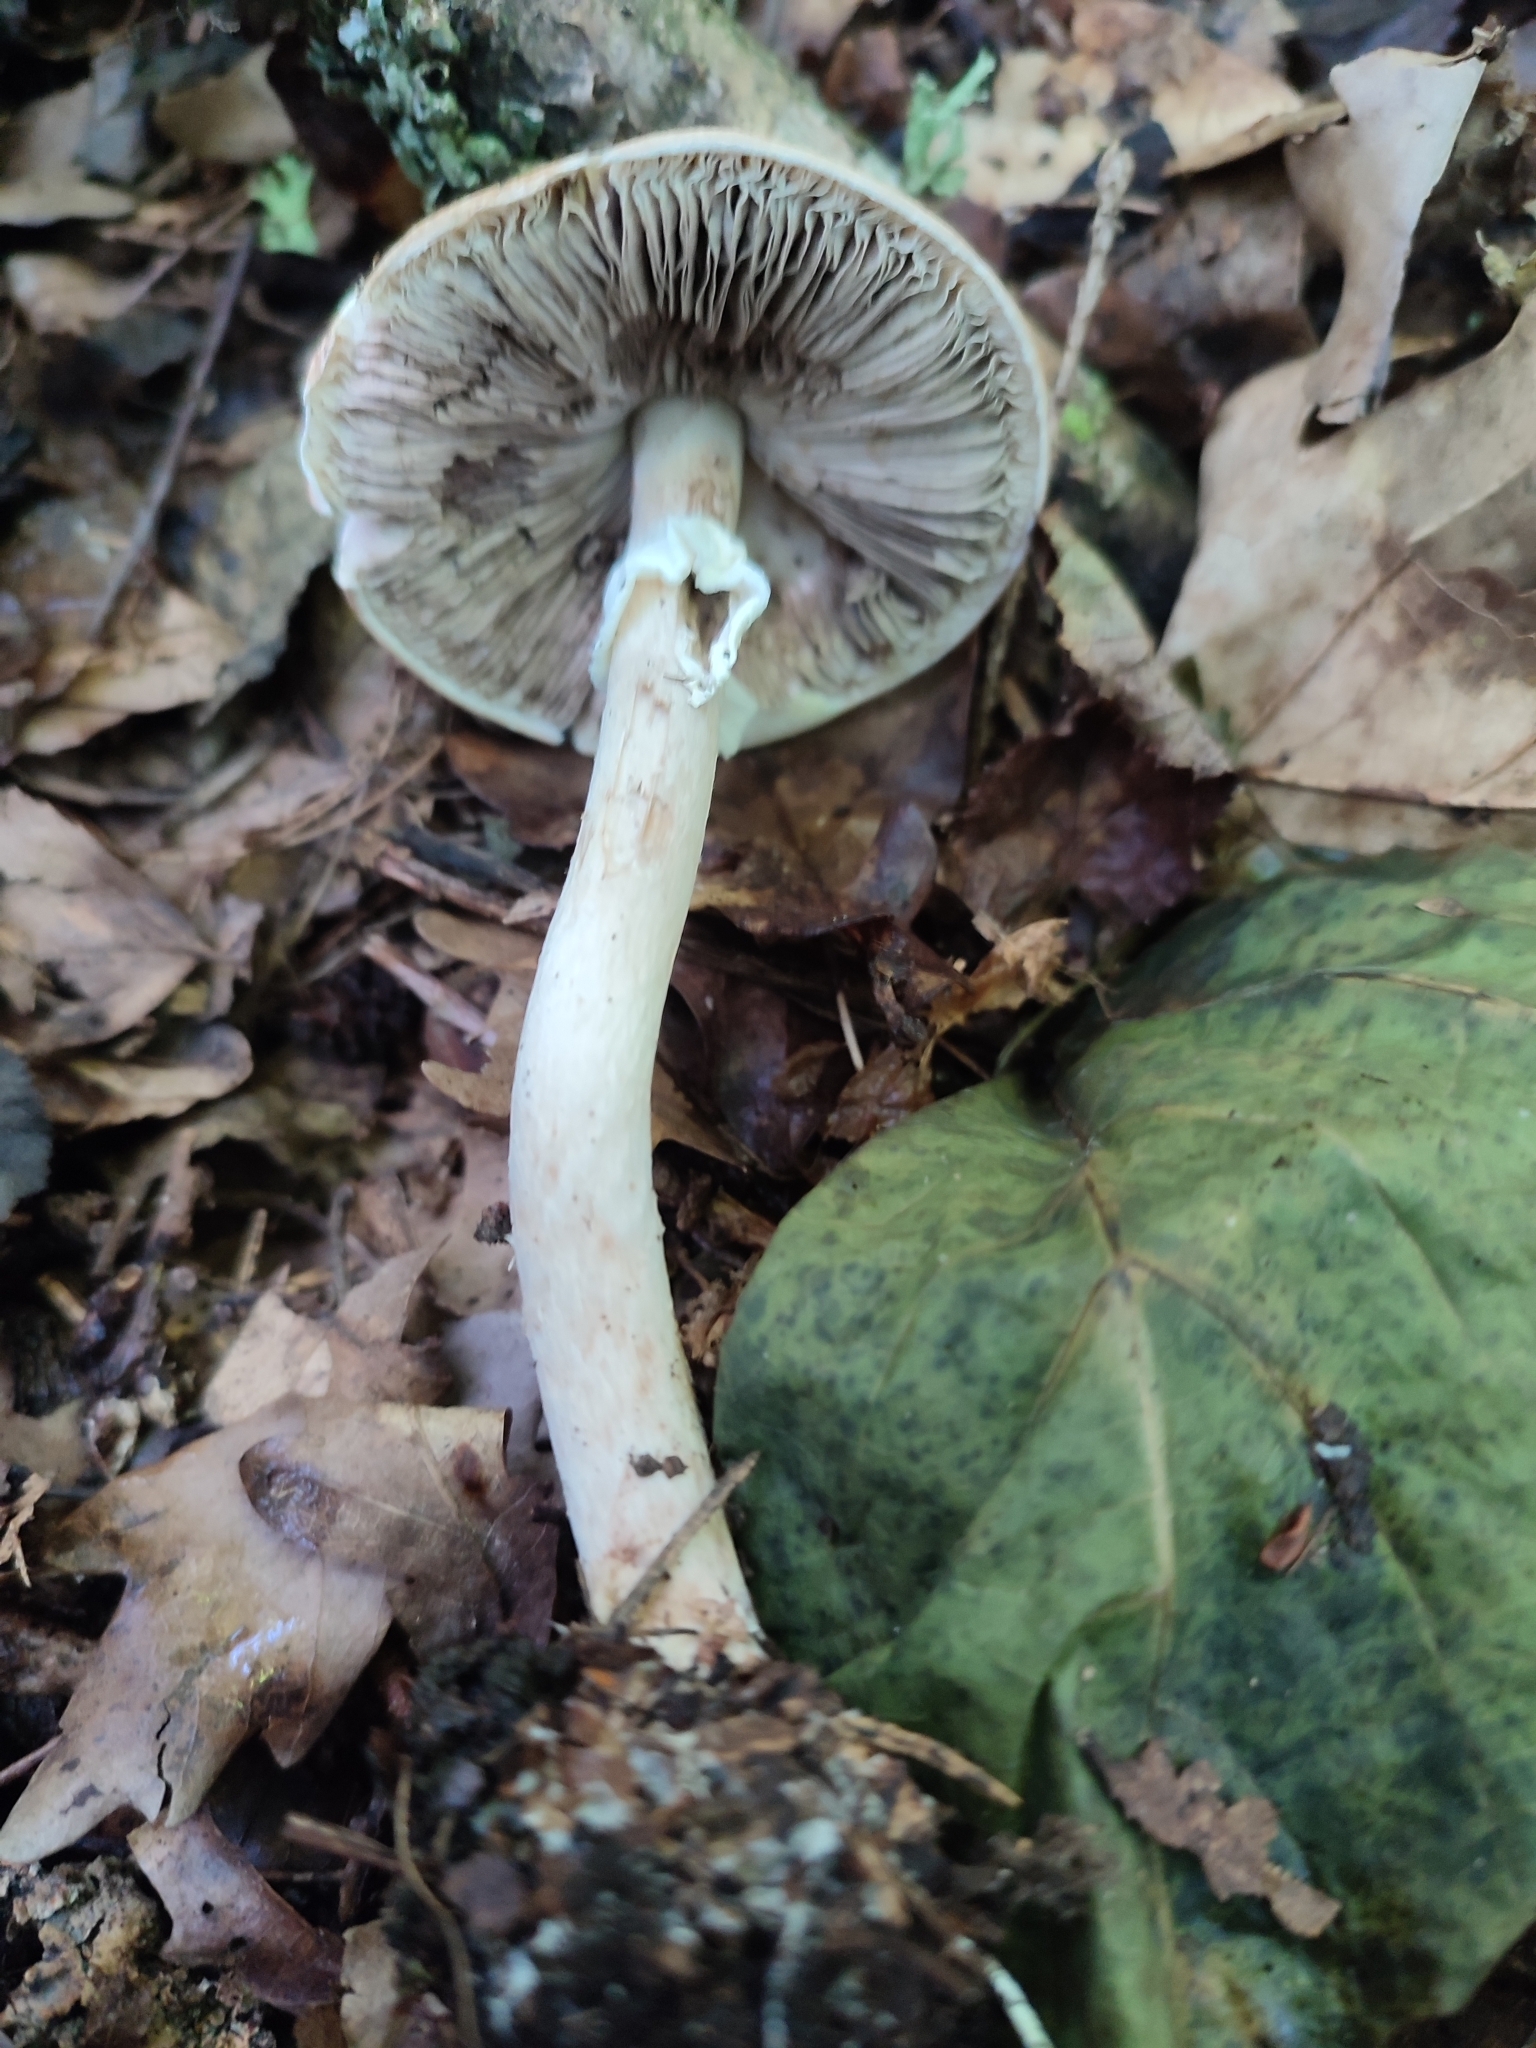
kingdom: Fungi
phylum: Basidiomycota
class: Agaricomycetes
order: Agaricales
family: Agaricaceae
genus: Agaricus
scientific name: Agaricus sylvaticus
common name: Blushing wood mushroom
